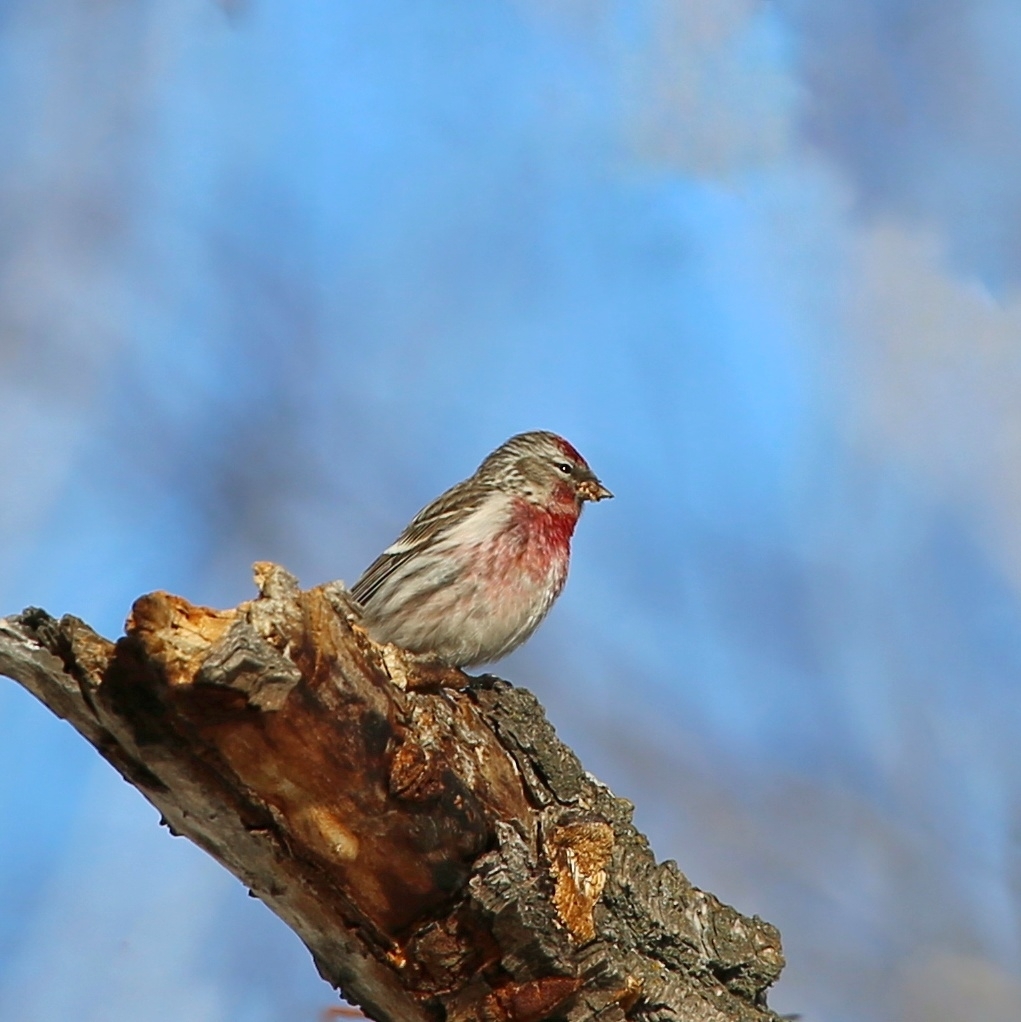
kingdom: Animalia
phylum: Chordata
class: Aves
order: Passeriformes
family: Fringillidae
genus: Acanthis
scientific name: Acanthis flammea
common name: Common redpoll
